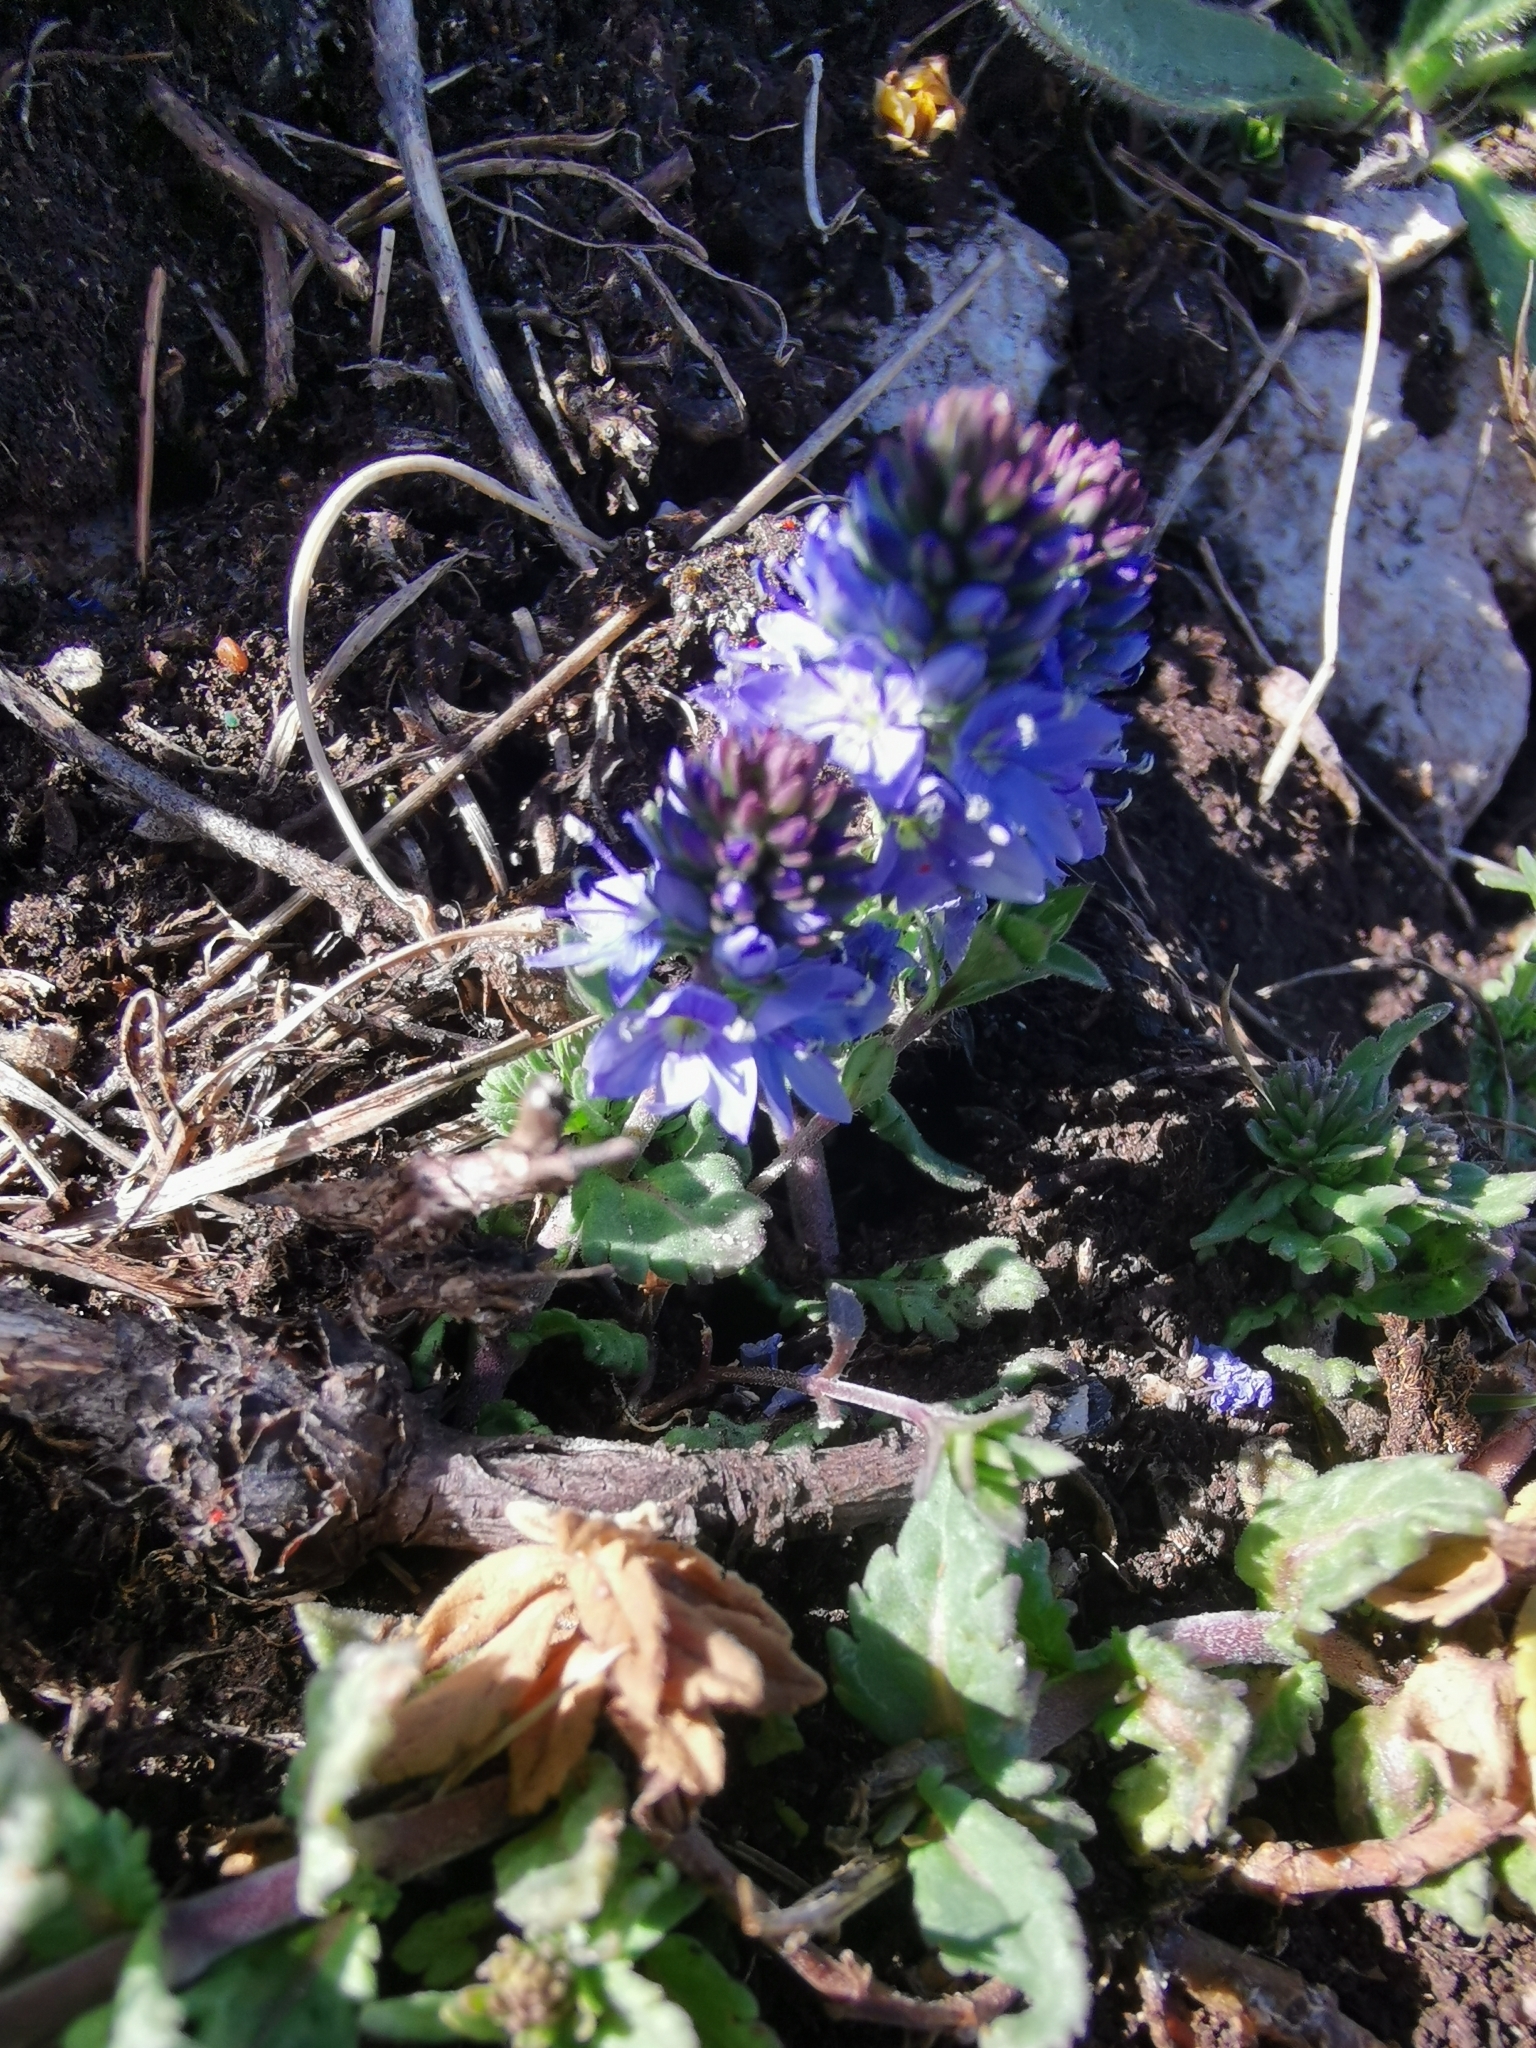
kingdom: Plantae
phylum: Tracheophyta
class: Magnoliopsida
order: Lamiales
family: Plantaginaceae
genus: Veronica
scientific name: Veronica prostrata
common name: Prostrate speedwell
